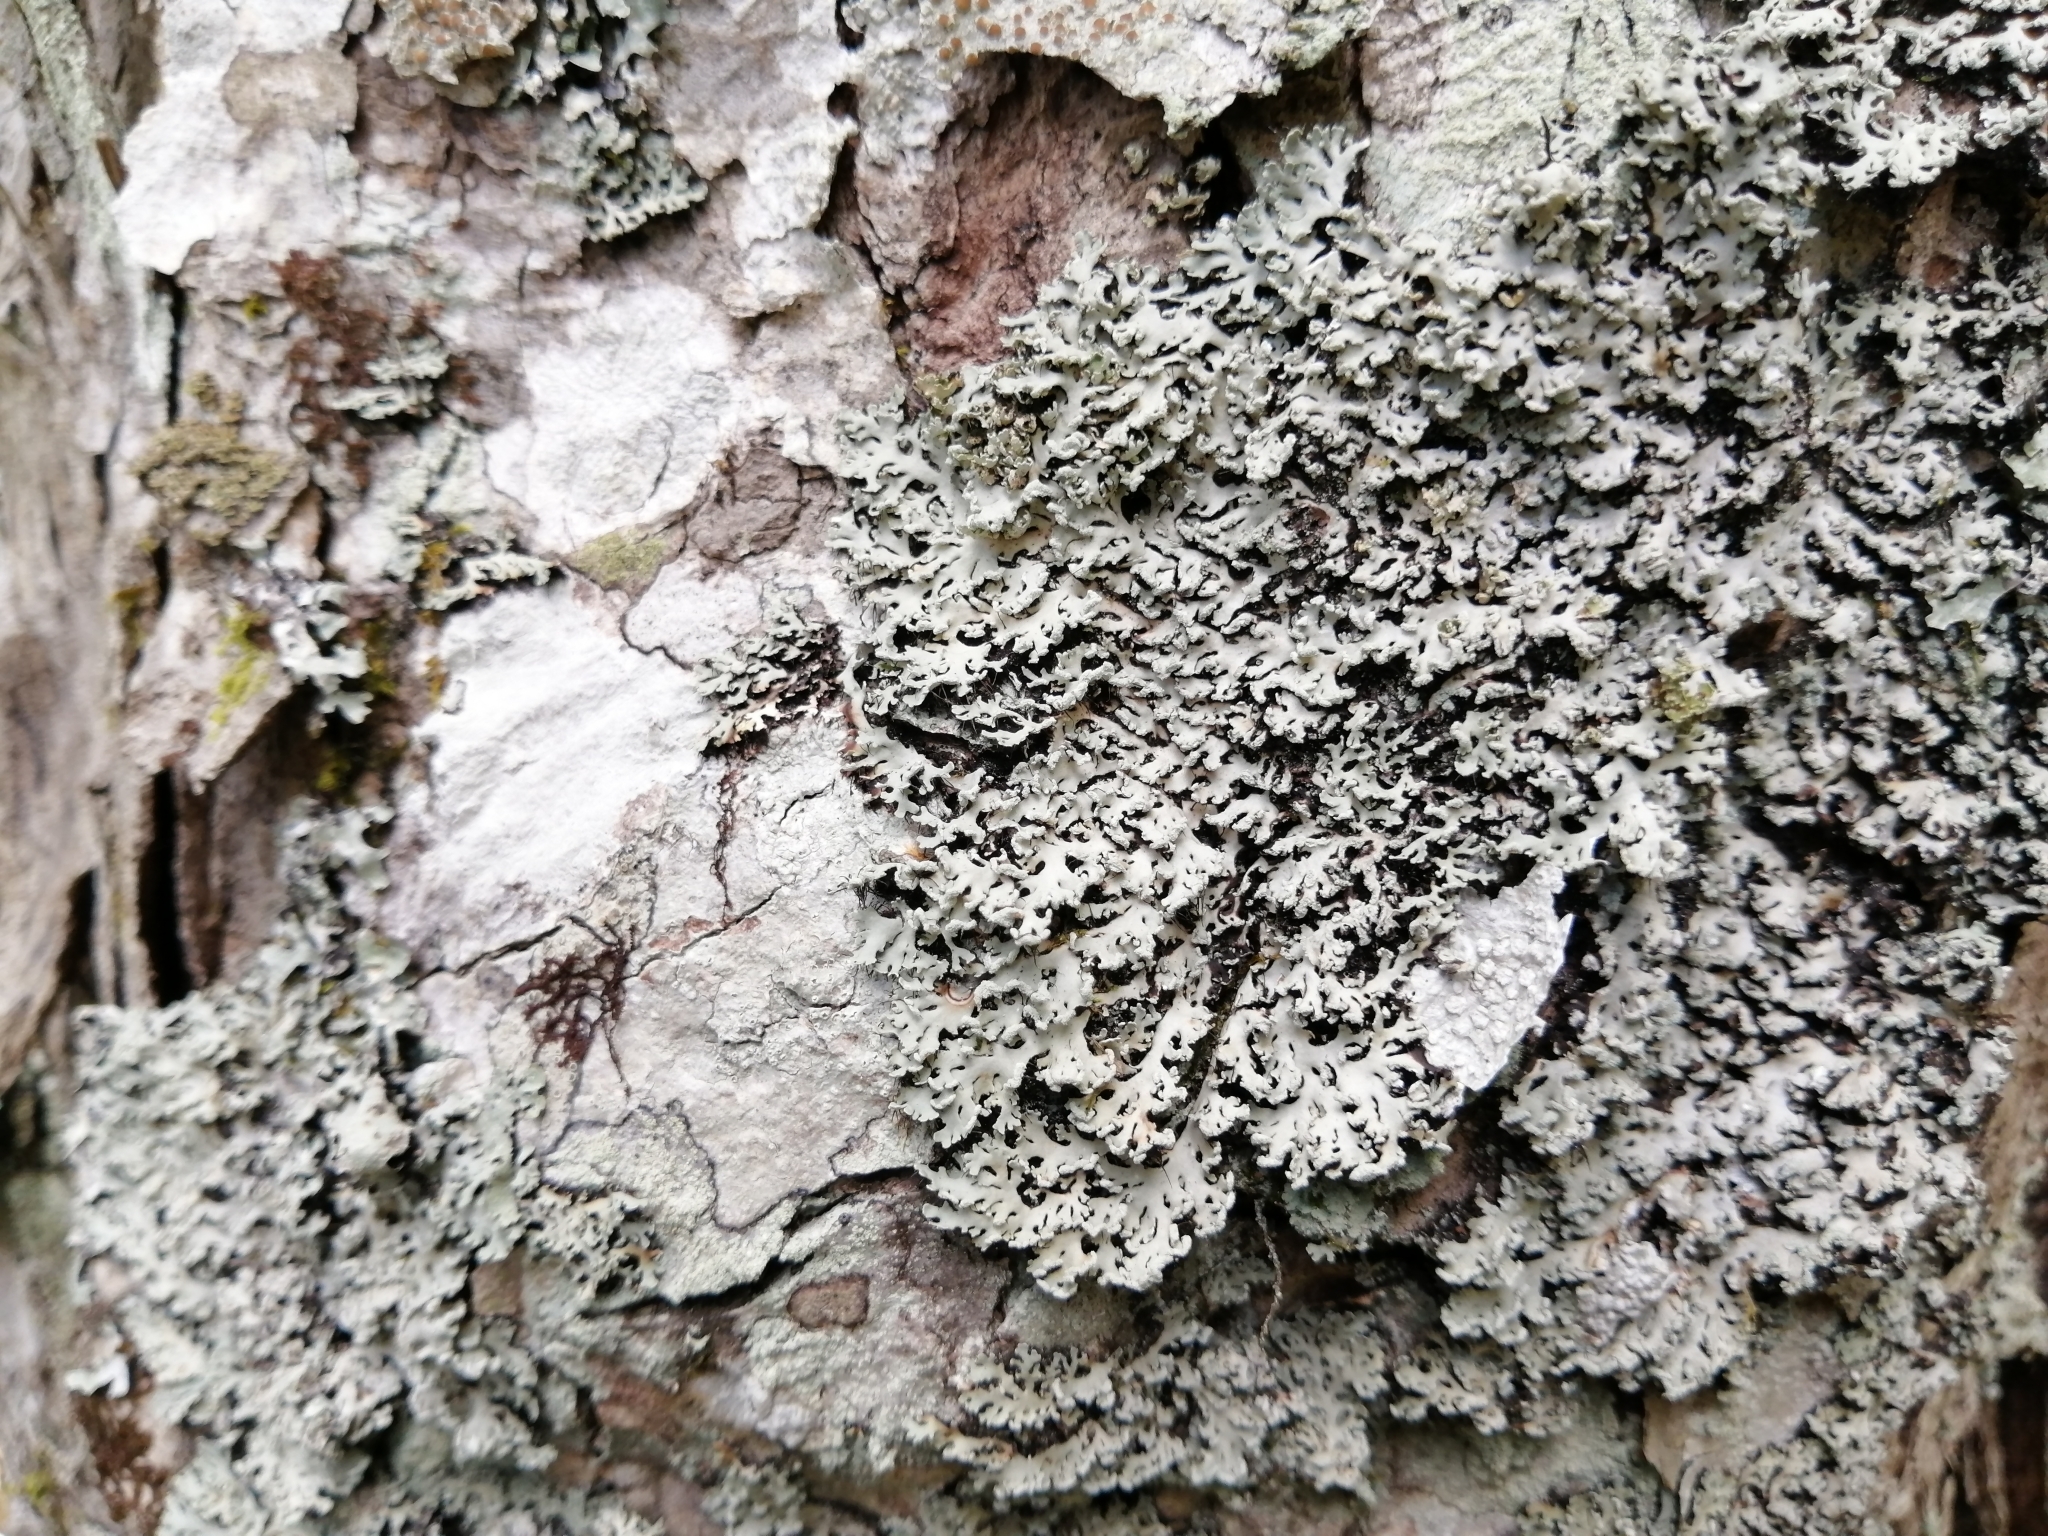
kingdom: Fungi
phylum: Ascomycota
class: Lecanoromycetes
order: Caliciales
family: Physciaceae
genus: Polyblastidium
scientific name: Polyblastidium neglectum
